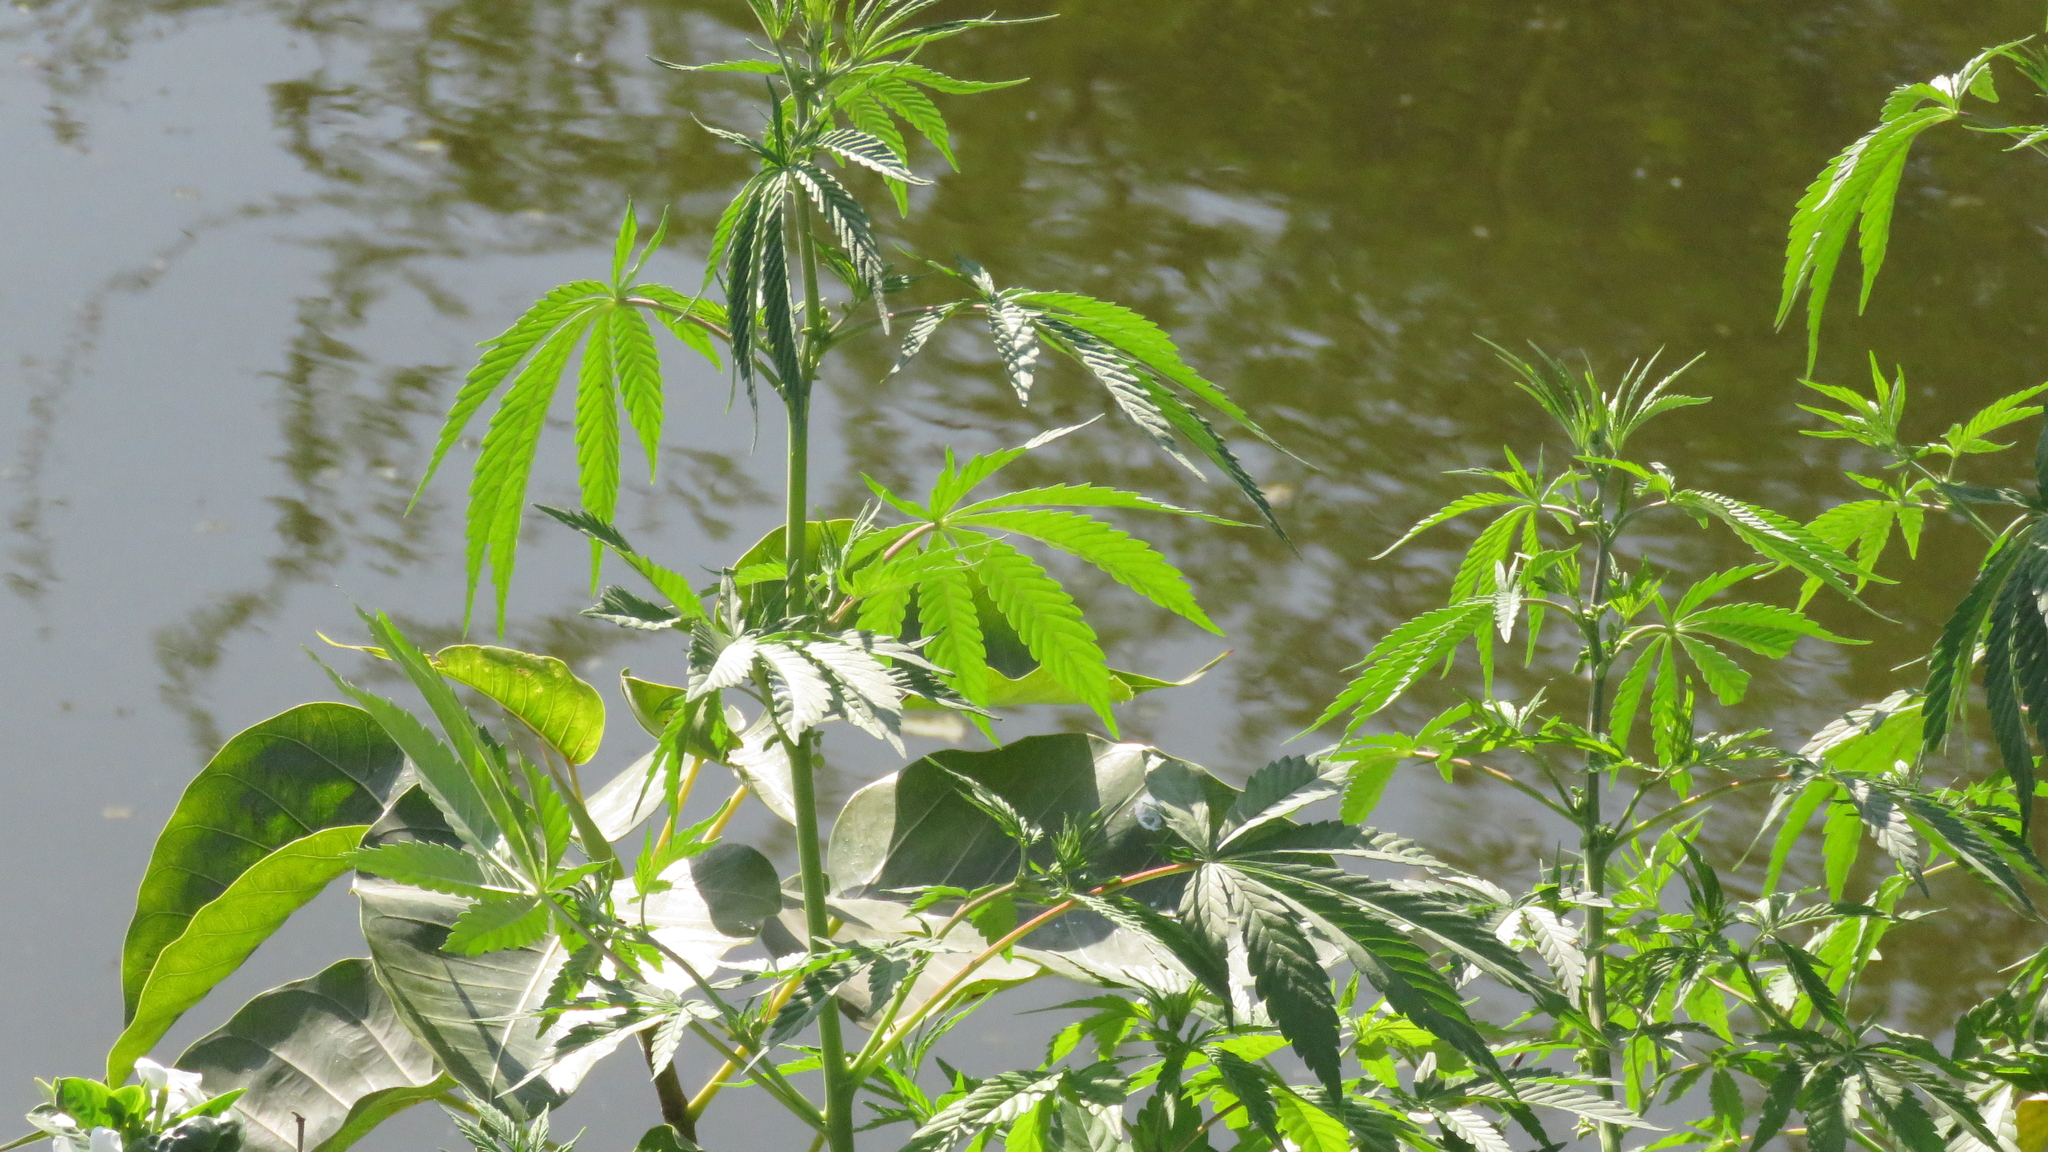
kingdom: Plantae
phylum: Tracheophyta
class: Magnoliopsida
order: Rosales
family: Cannabaceae
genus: Cannabis
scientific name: Cannabis sativa
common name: Hemp
